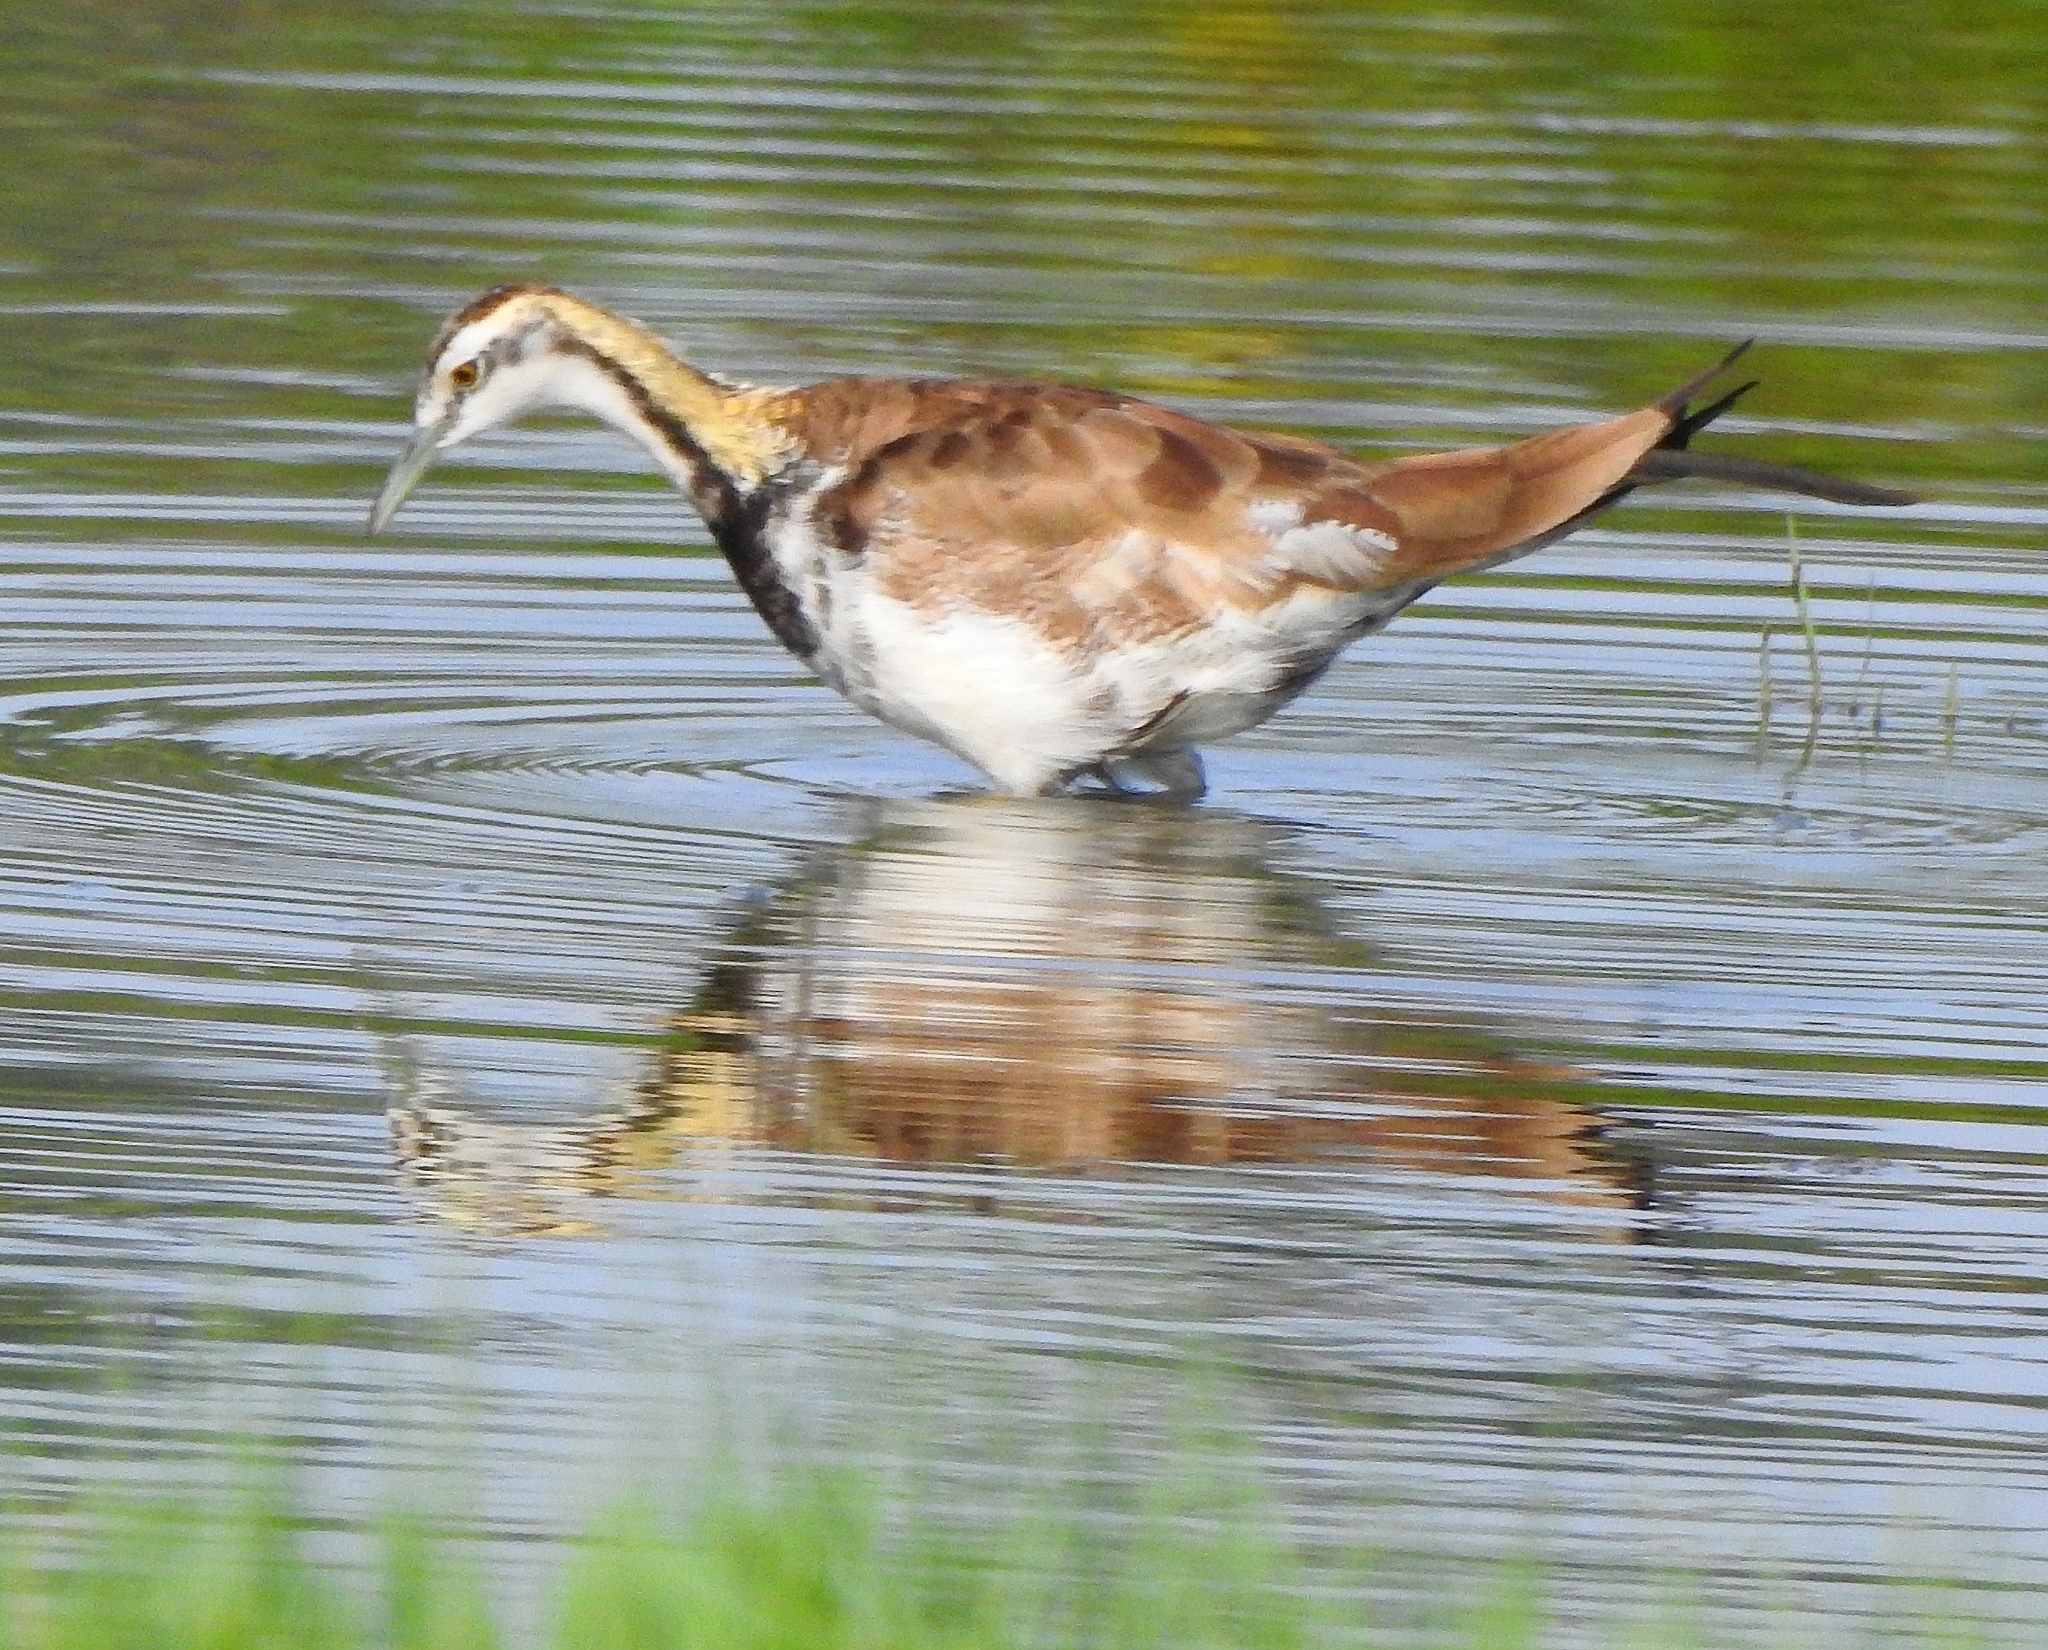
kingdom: Animalia
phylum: Chordata
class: Aves
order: Charadriiformes
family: Jacanidae
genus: Hydrophasianus
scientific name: Hydrophasianus chirurgus
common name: Pheasant-tailed jacana
